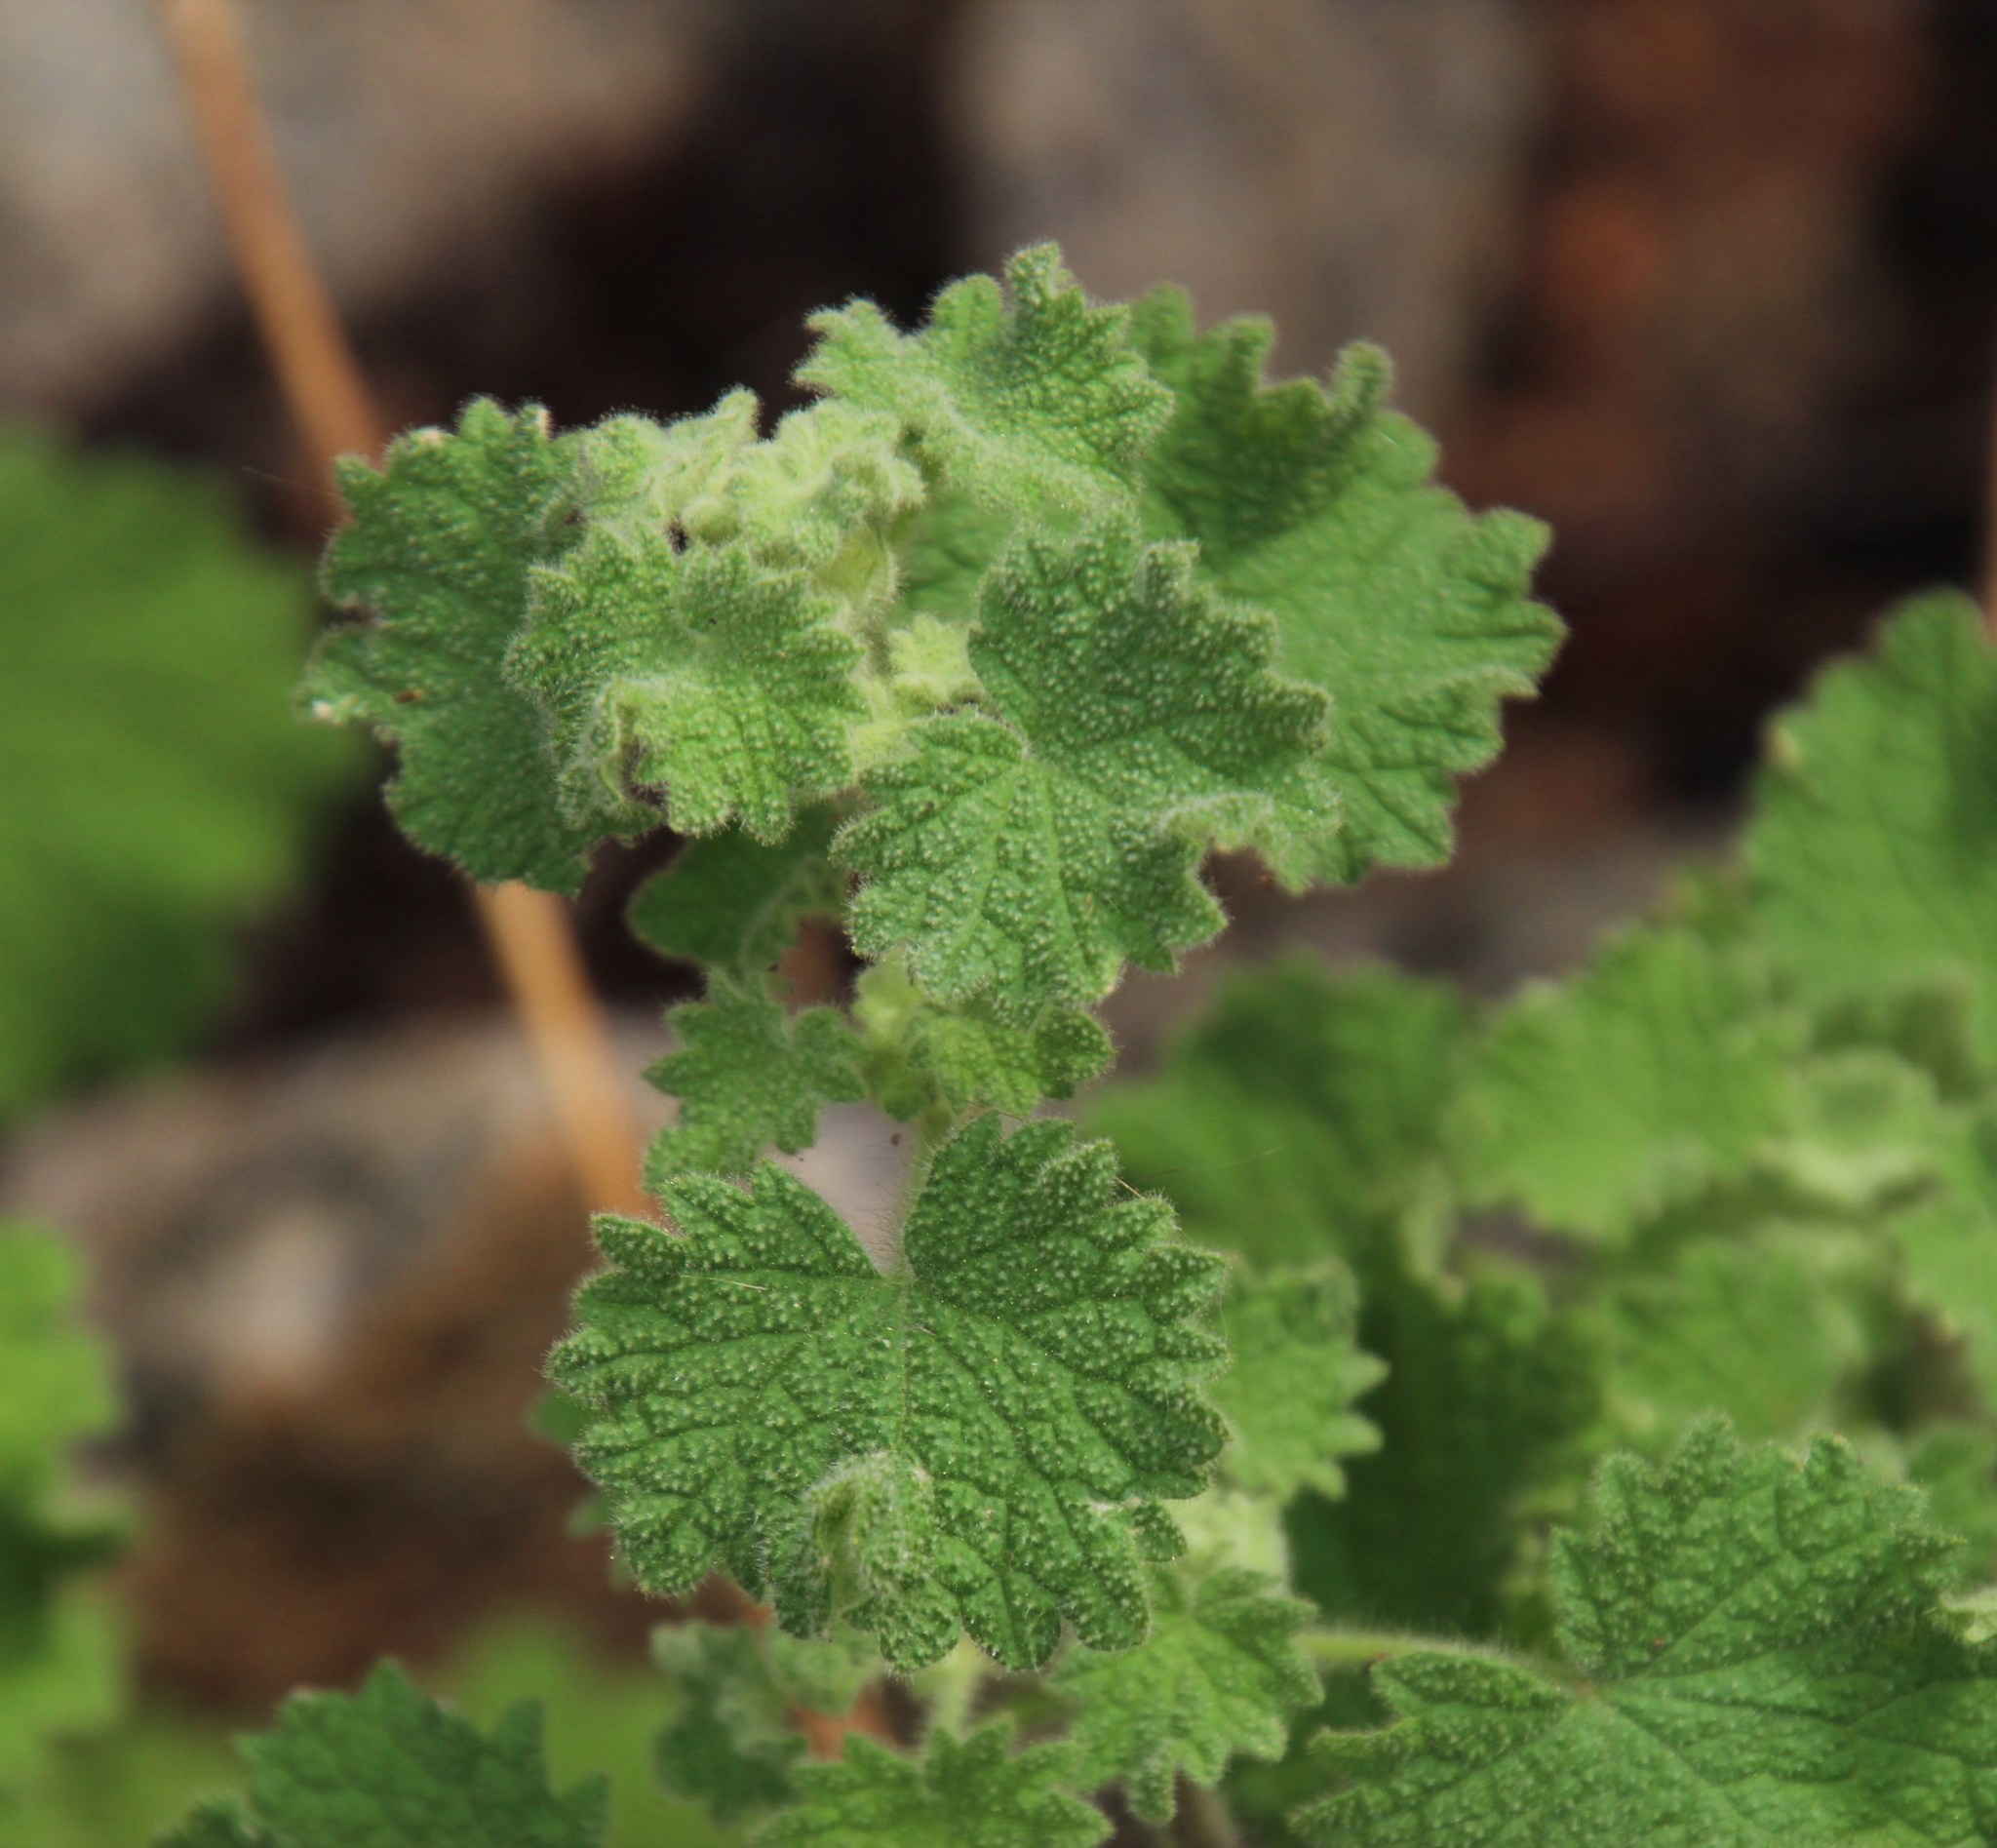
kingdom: Plantae
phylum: Tracheophyta
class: Magnoliopsida
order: Lamiales
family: Lamiaceae
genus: Pseudodictamnus
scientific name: Pseudodictamnus africanus
